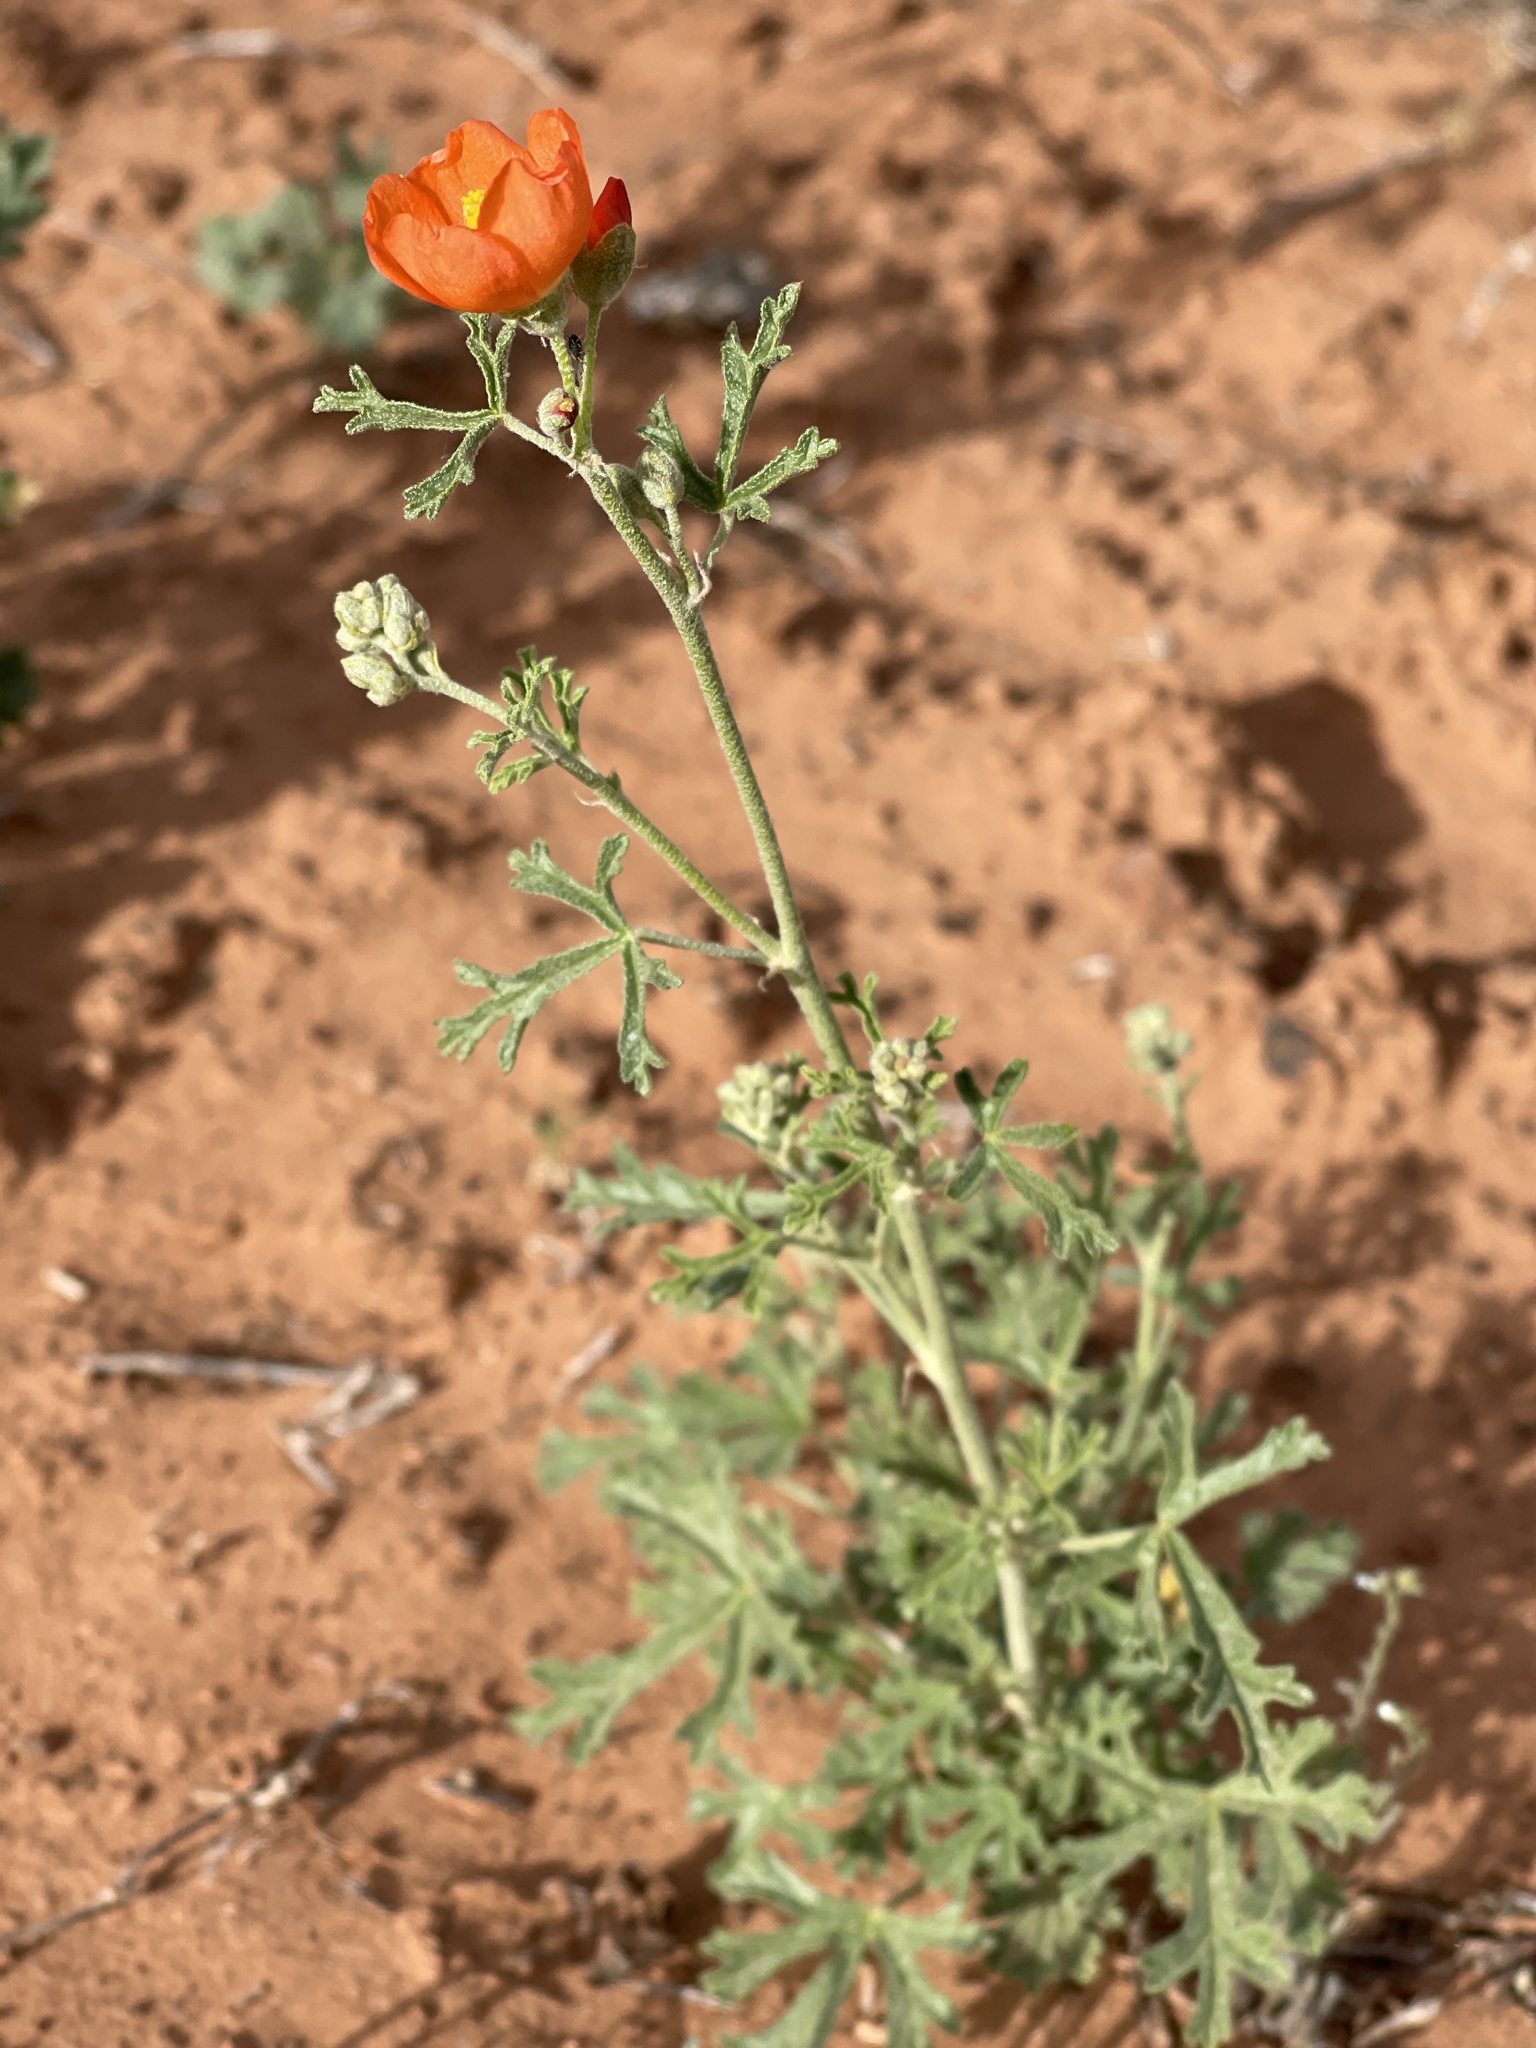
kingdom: Plantae
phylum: Tracheophyta
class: Magnoliopsida
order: Malvales
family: Malvaceae
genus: Sphaeralcea
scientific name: Sphaeralcea grossulariifolia
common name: Current-leaf globe-mallow
